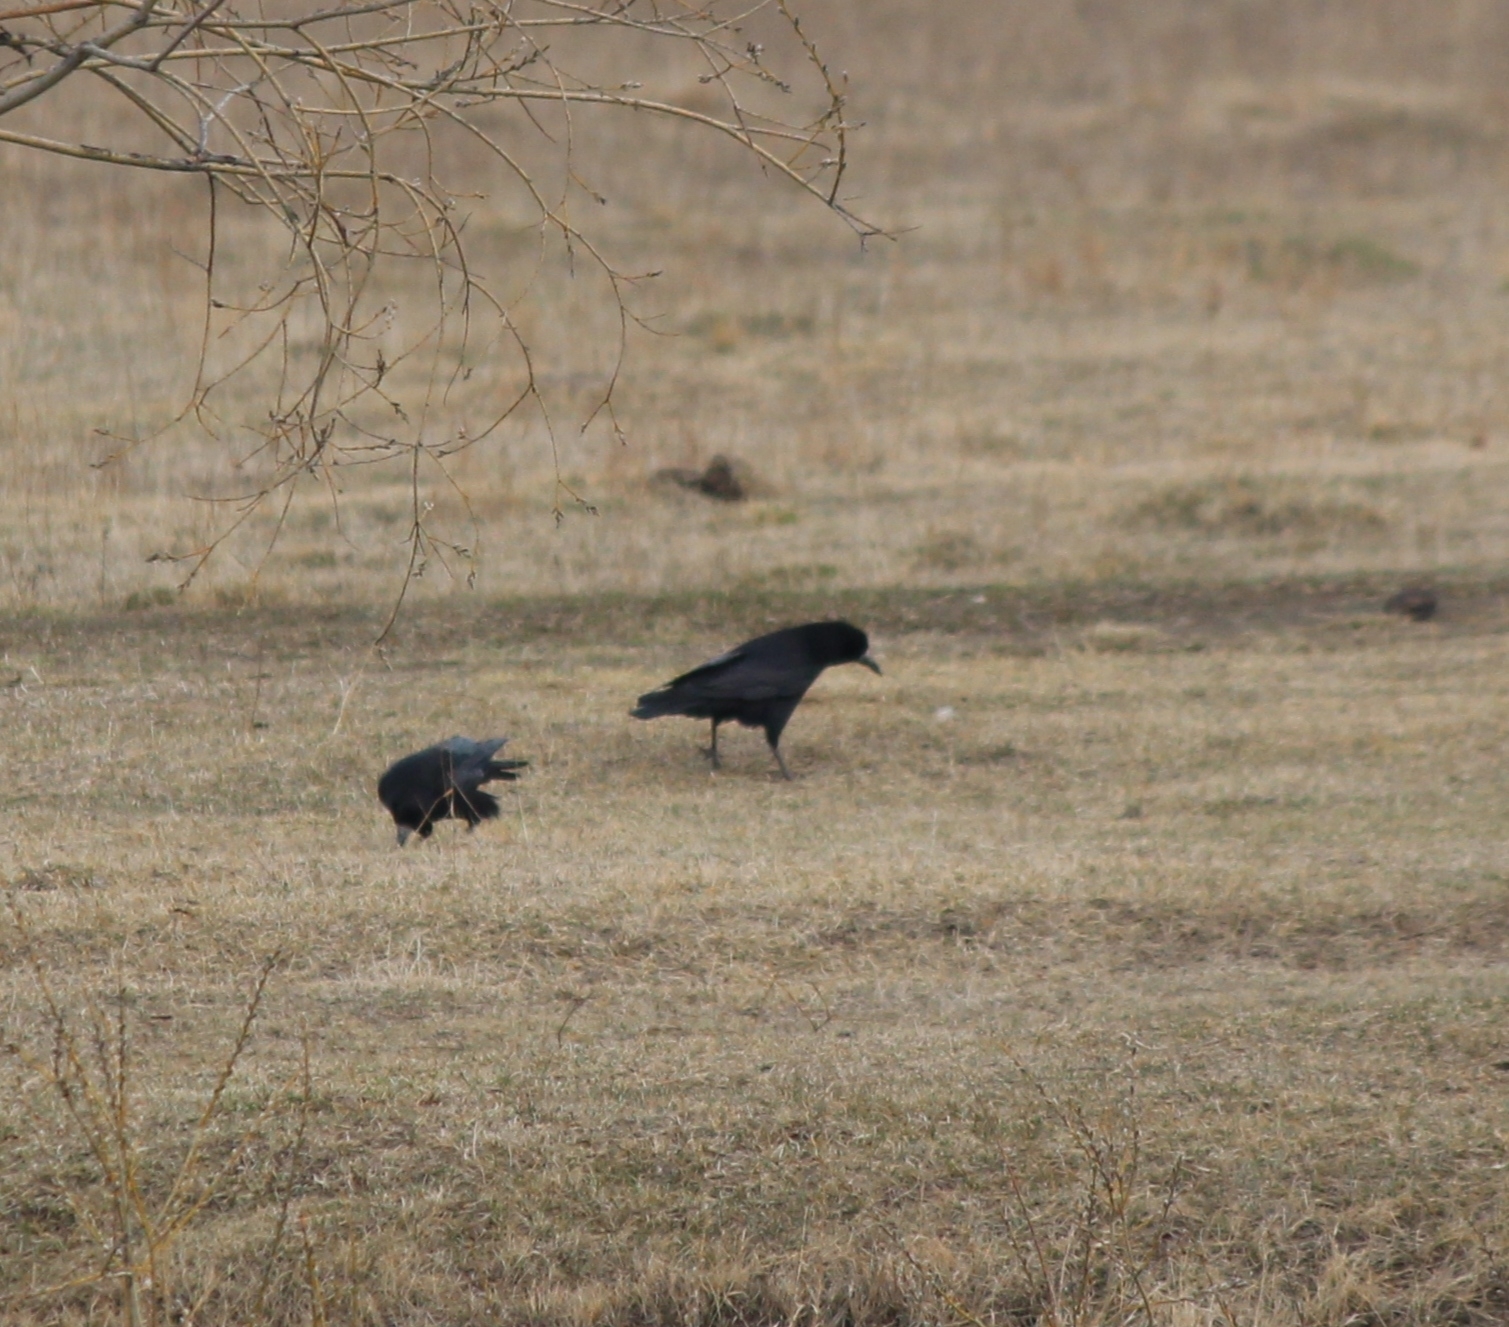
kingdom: Animalia
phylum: Chordata
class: Aves
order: Passeriformes
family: Corvidae
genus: Corvus
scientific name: Corvus frugilegus
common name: Rook
